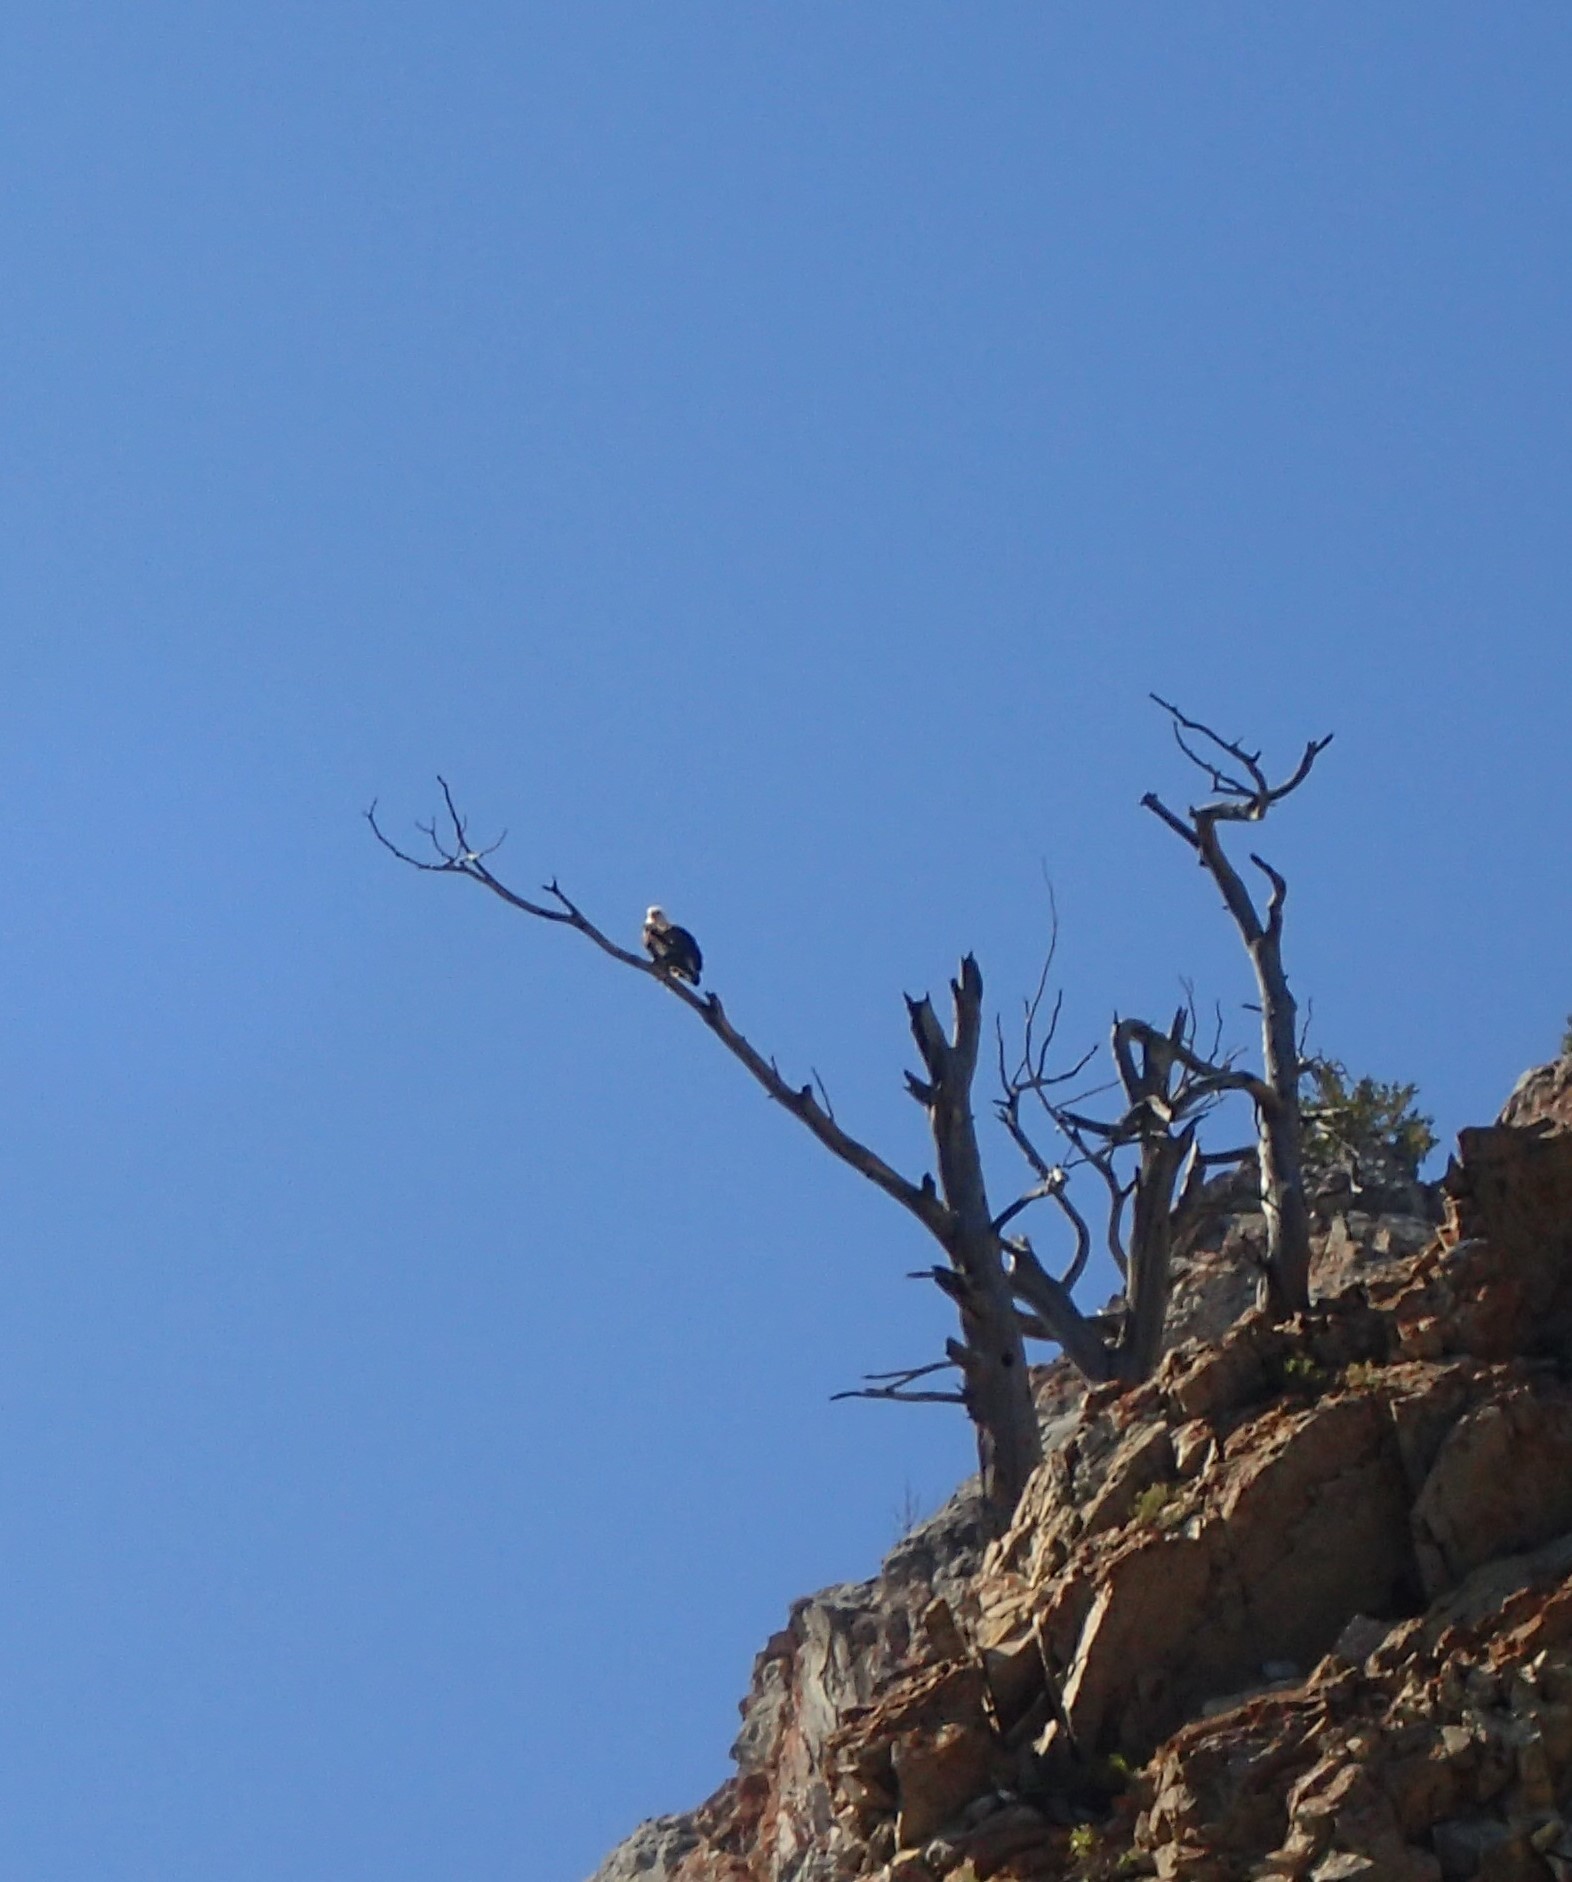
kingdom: Animalia
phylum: Chordata
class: Aves
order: Accipitriformes
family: Accipitridae
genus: Haliaeetus
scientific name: Haliaeetus leucocephalus
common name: Bald eagle
